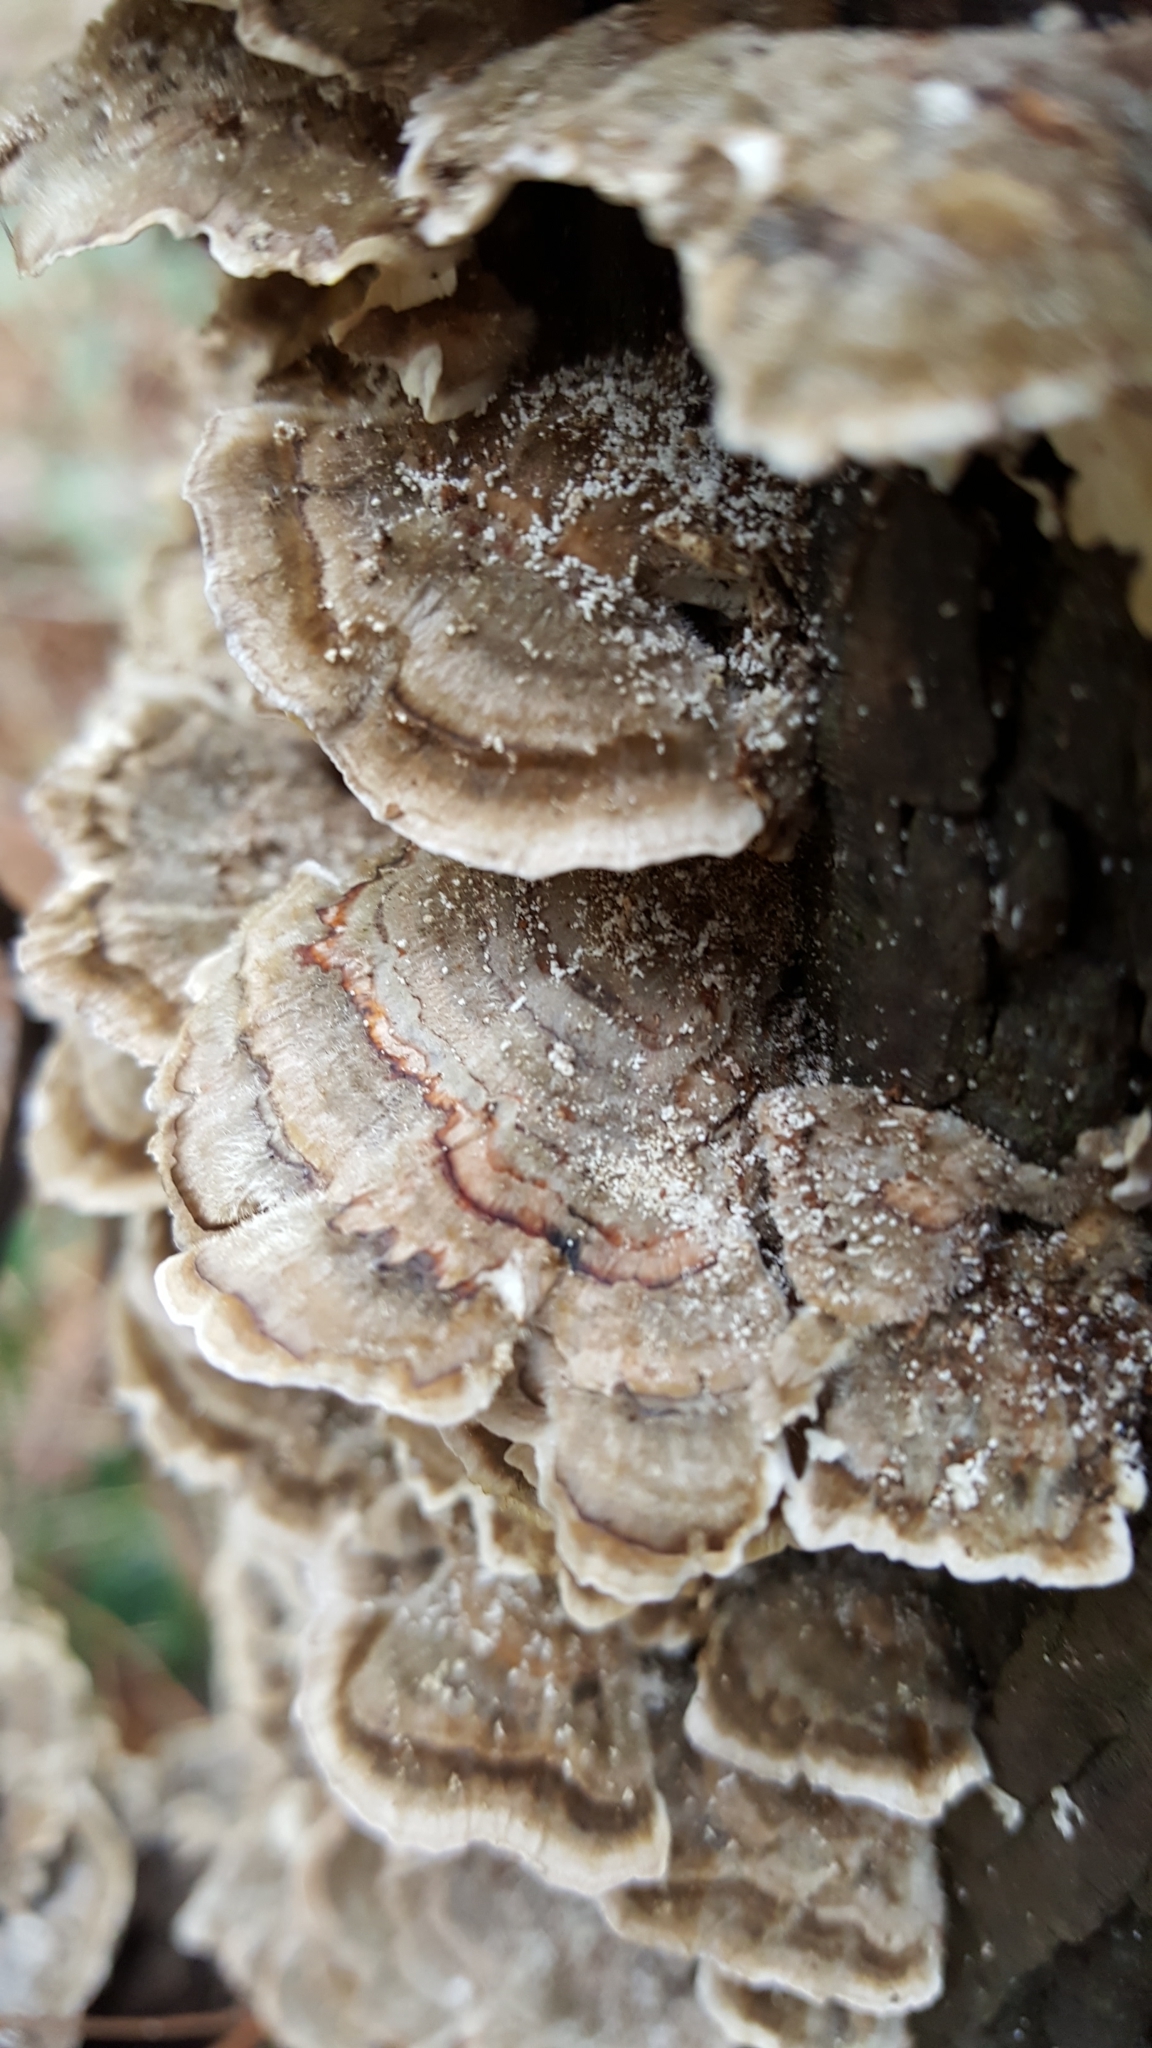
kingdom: Fungi
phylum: Basidiomycota
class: Agaricomycetes
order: Polyporales
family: Polyporaceae
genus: Trametes
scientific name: Trametes versicolor
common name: Turkeytail
